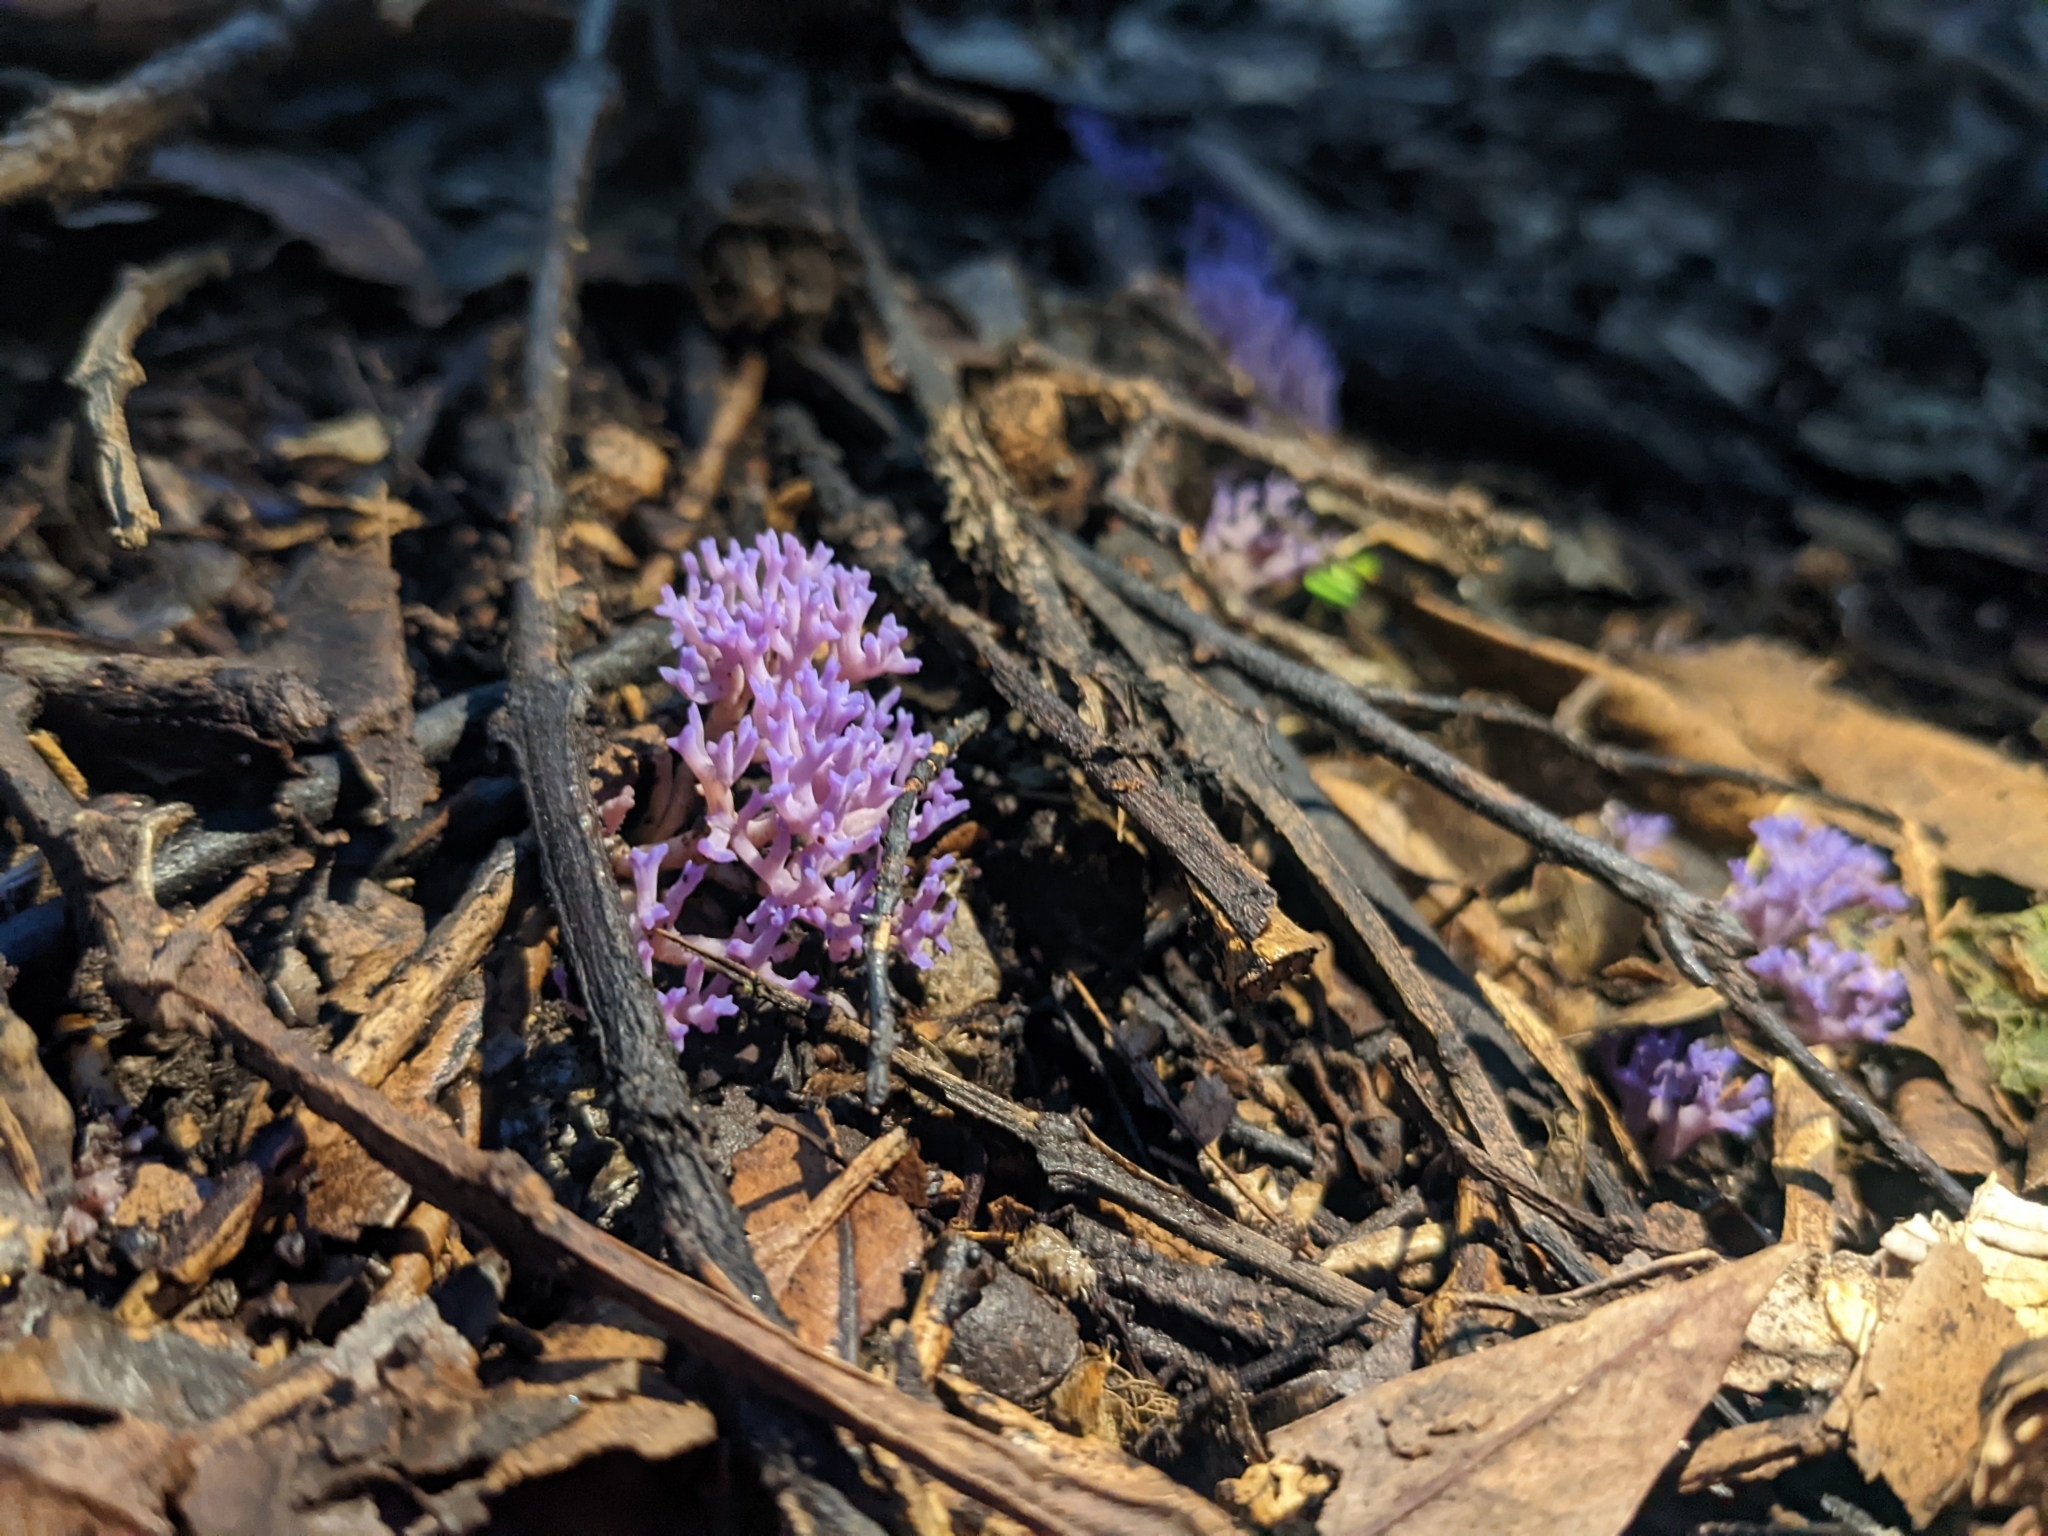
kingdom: Fungi
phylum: Basidiomycota
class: Agaricomycetes
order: Agaricales
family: Clavariaceae
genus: Ramariopsis
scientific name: Ramariopsis pulchella
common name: Lilac coral
